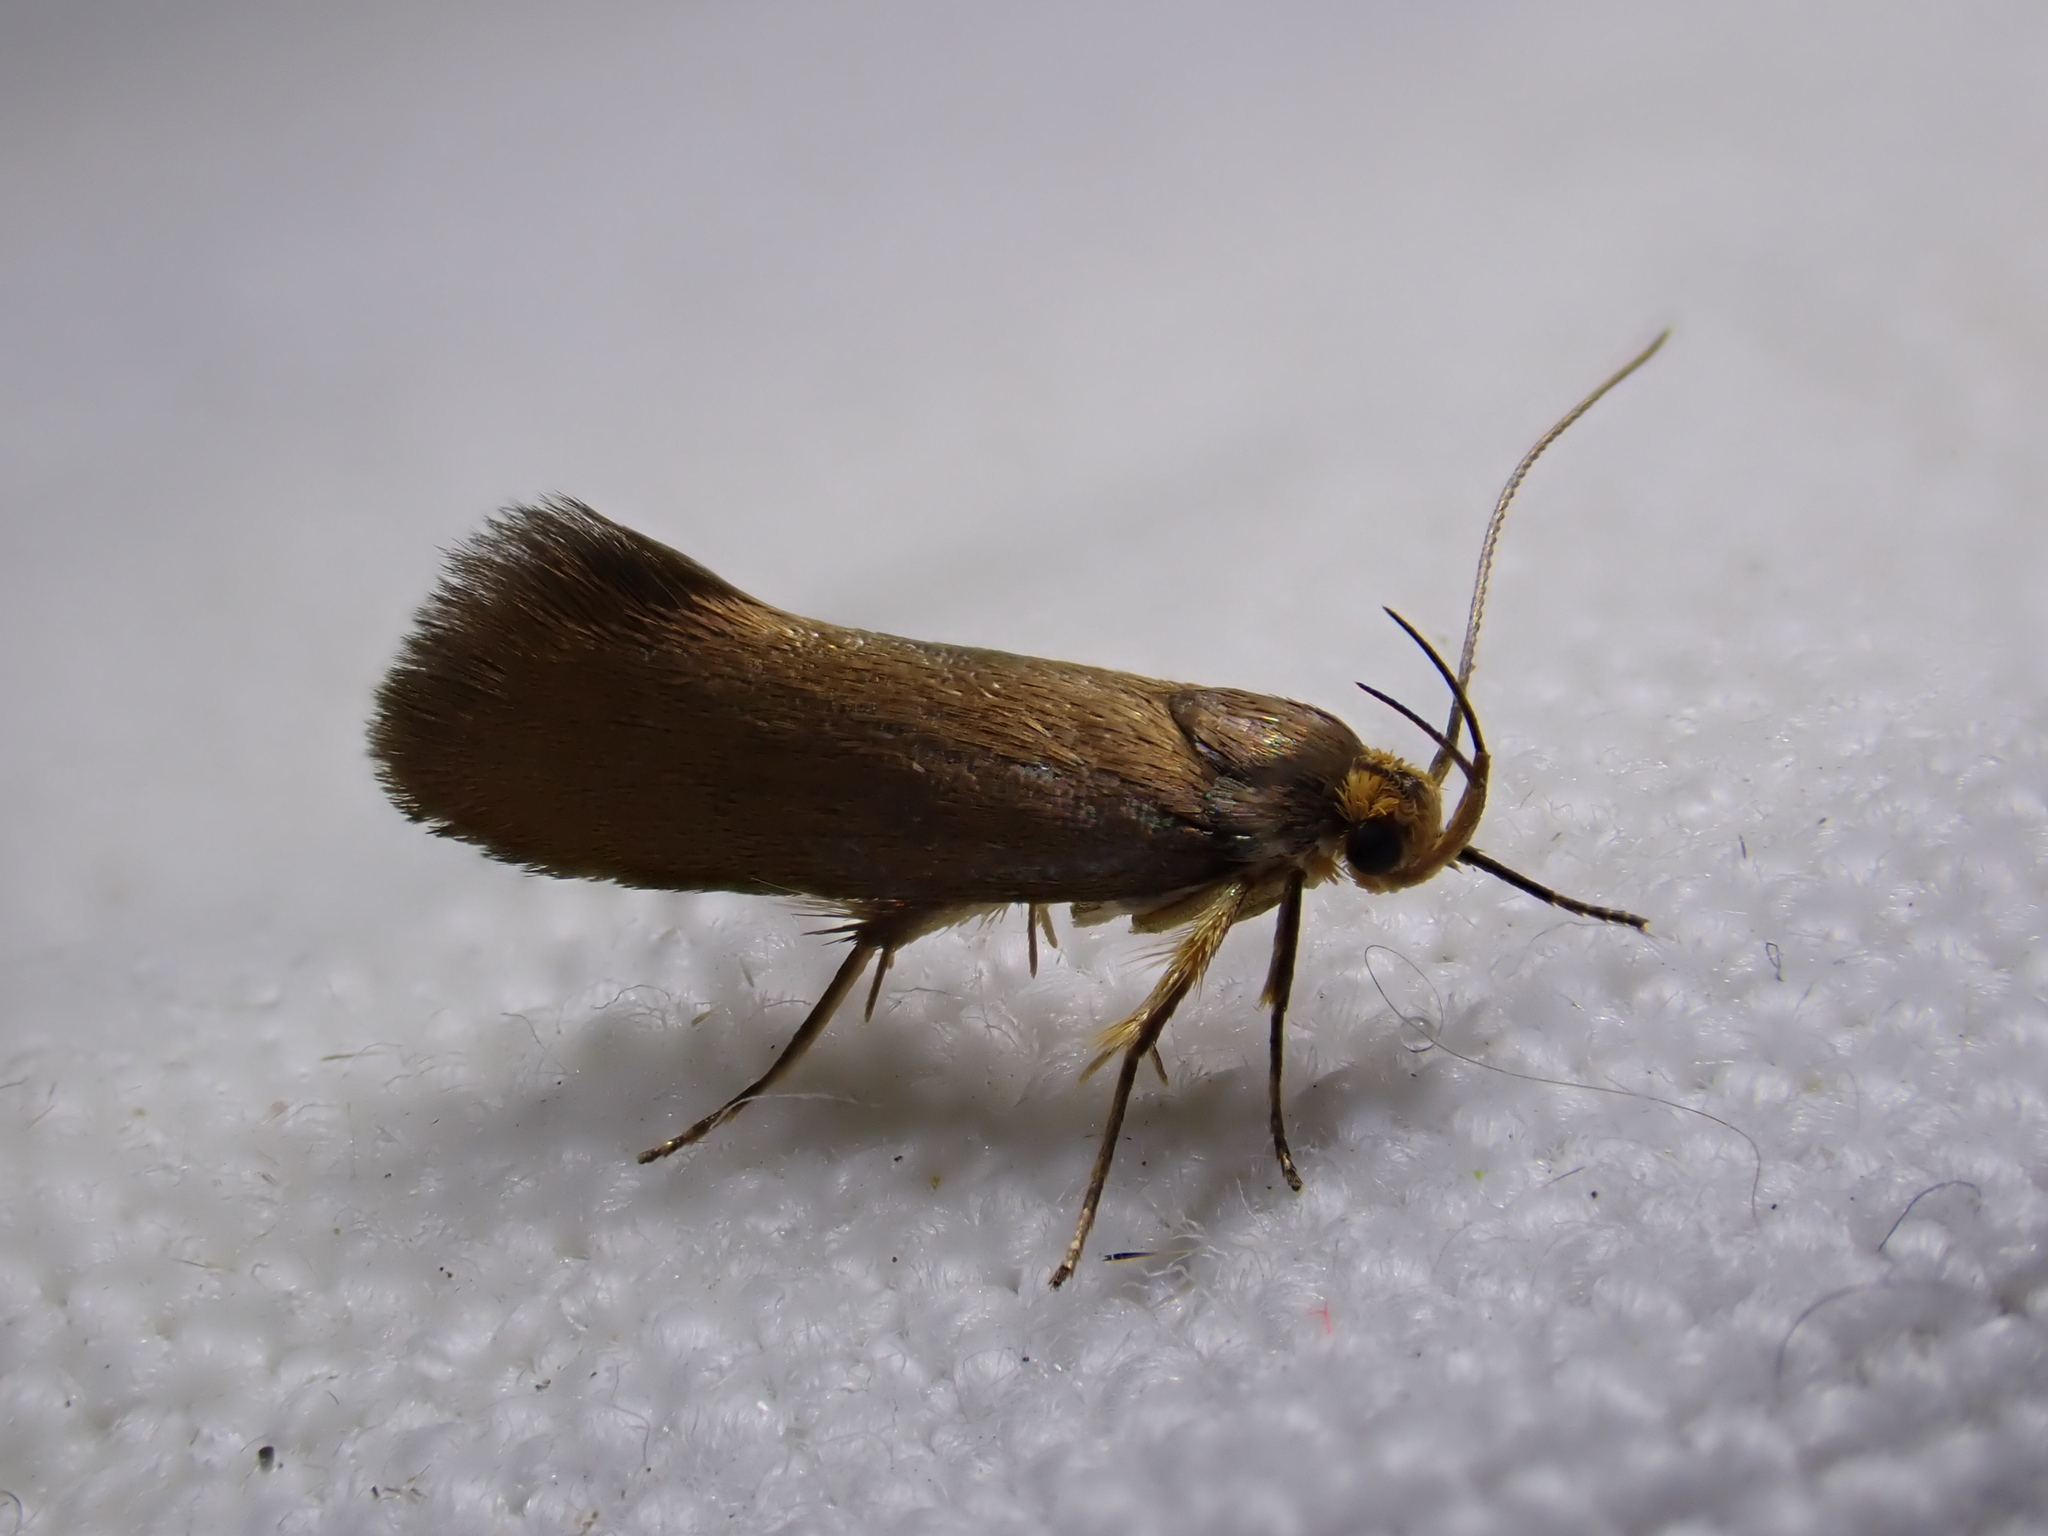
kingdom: Animalia
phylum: Arthropoda
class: Insecta
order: Lepidoptera
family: Oecophoridae
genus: Borkhausenia
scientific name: Borkhausenia Crassa unitella
